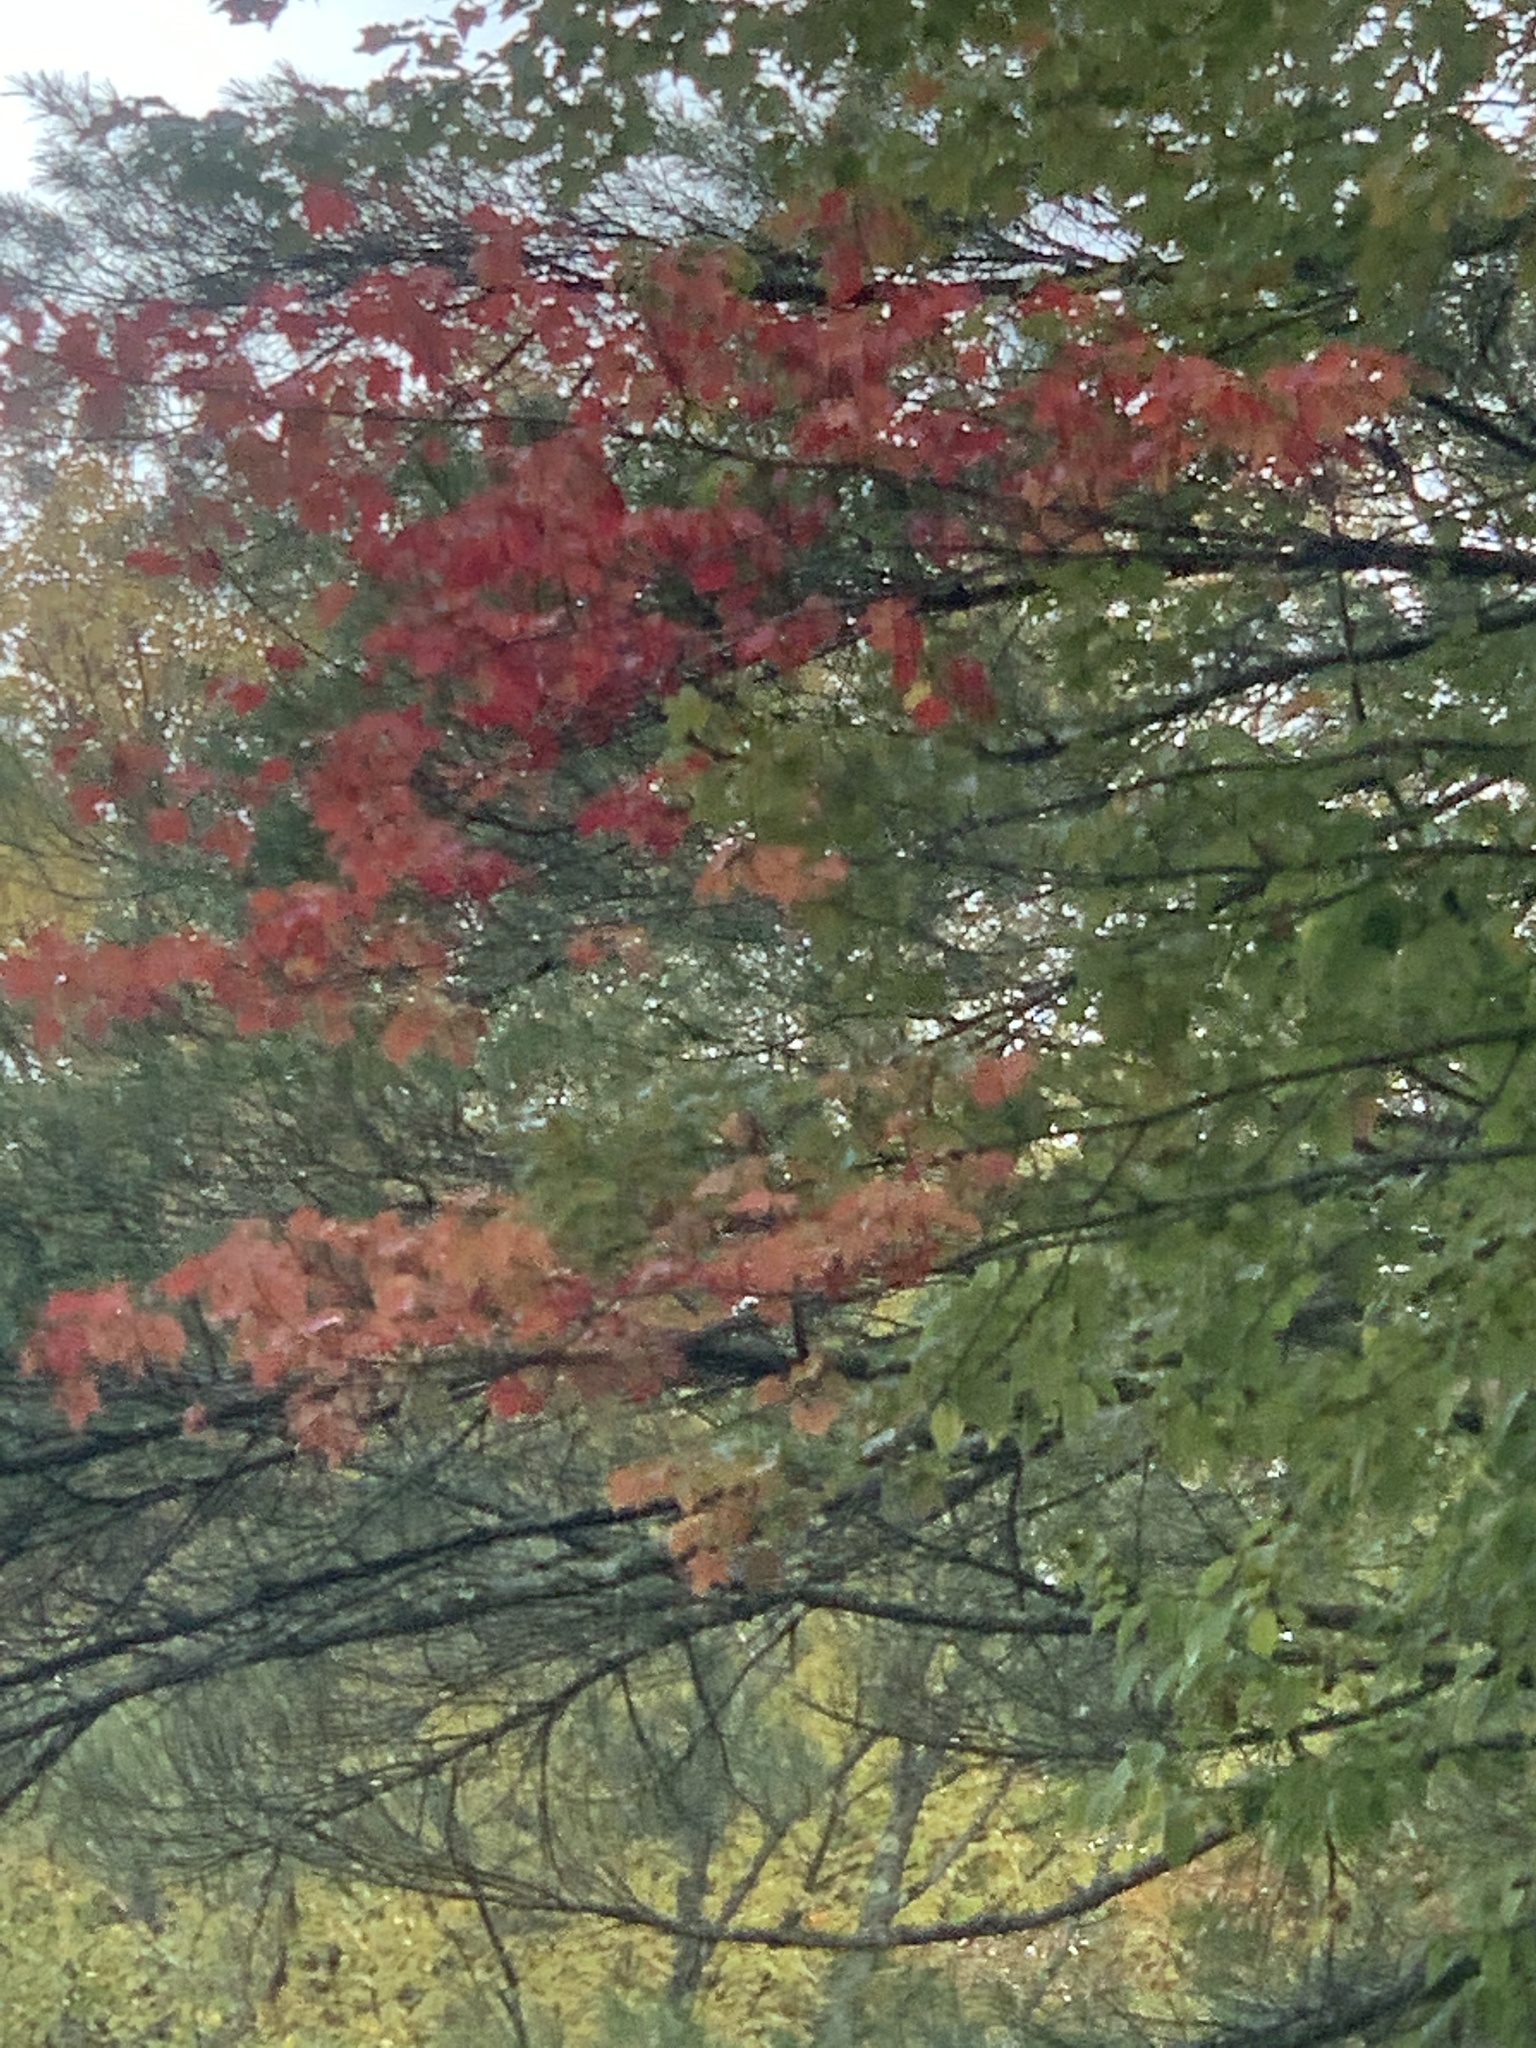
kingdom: Plantae
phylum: Tracheophyta
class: Magnoliopsida
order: Sapindales
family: Sapindaceae
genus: Acer
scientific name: Acer rubrum
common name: Red maple
